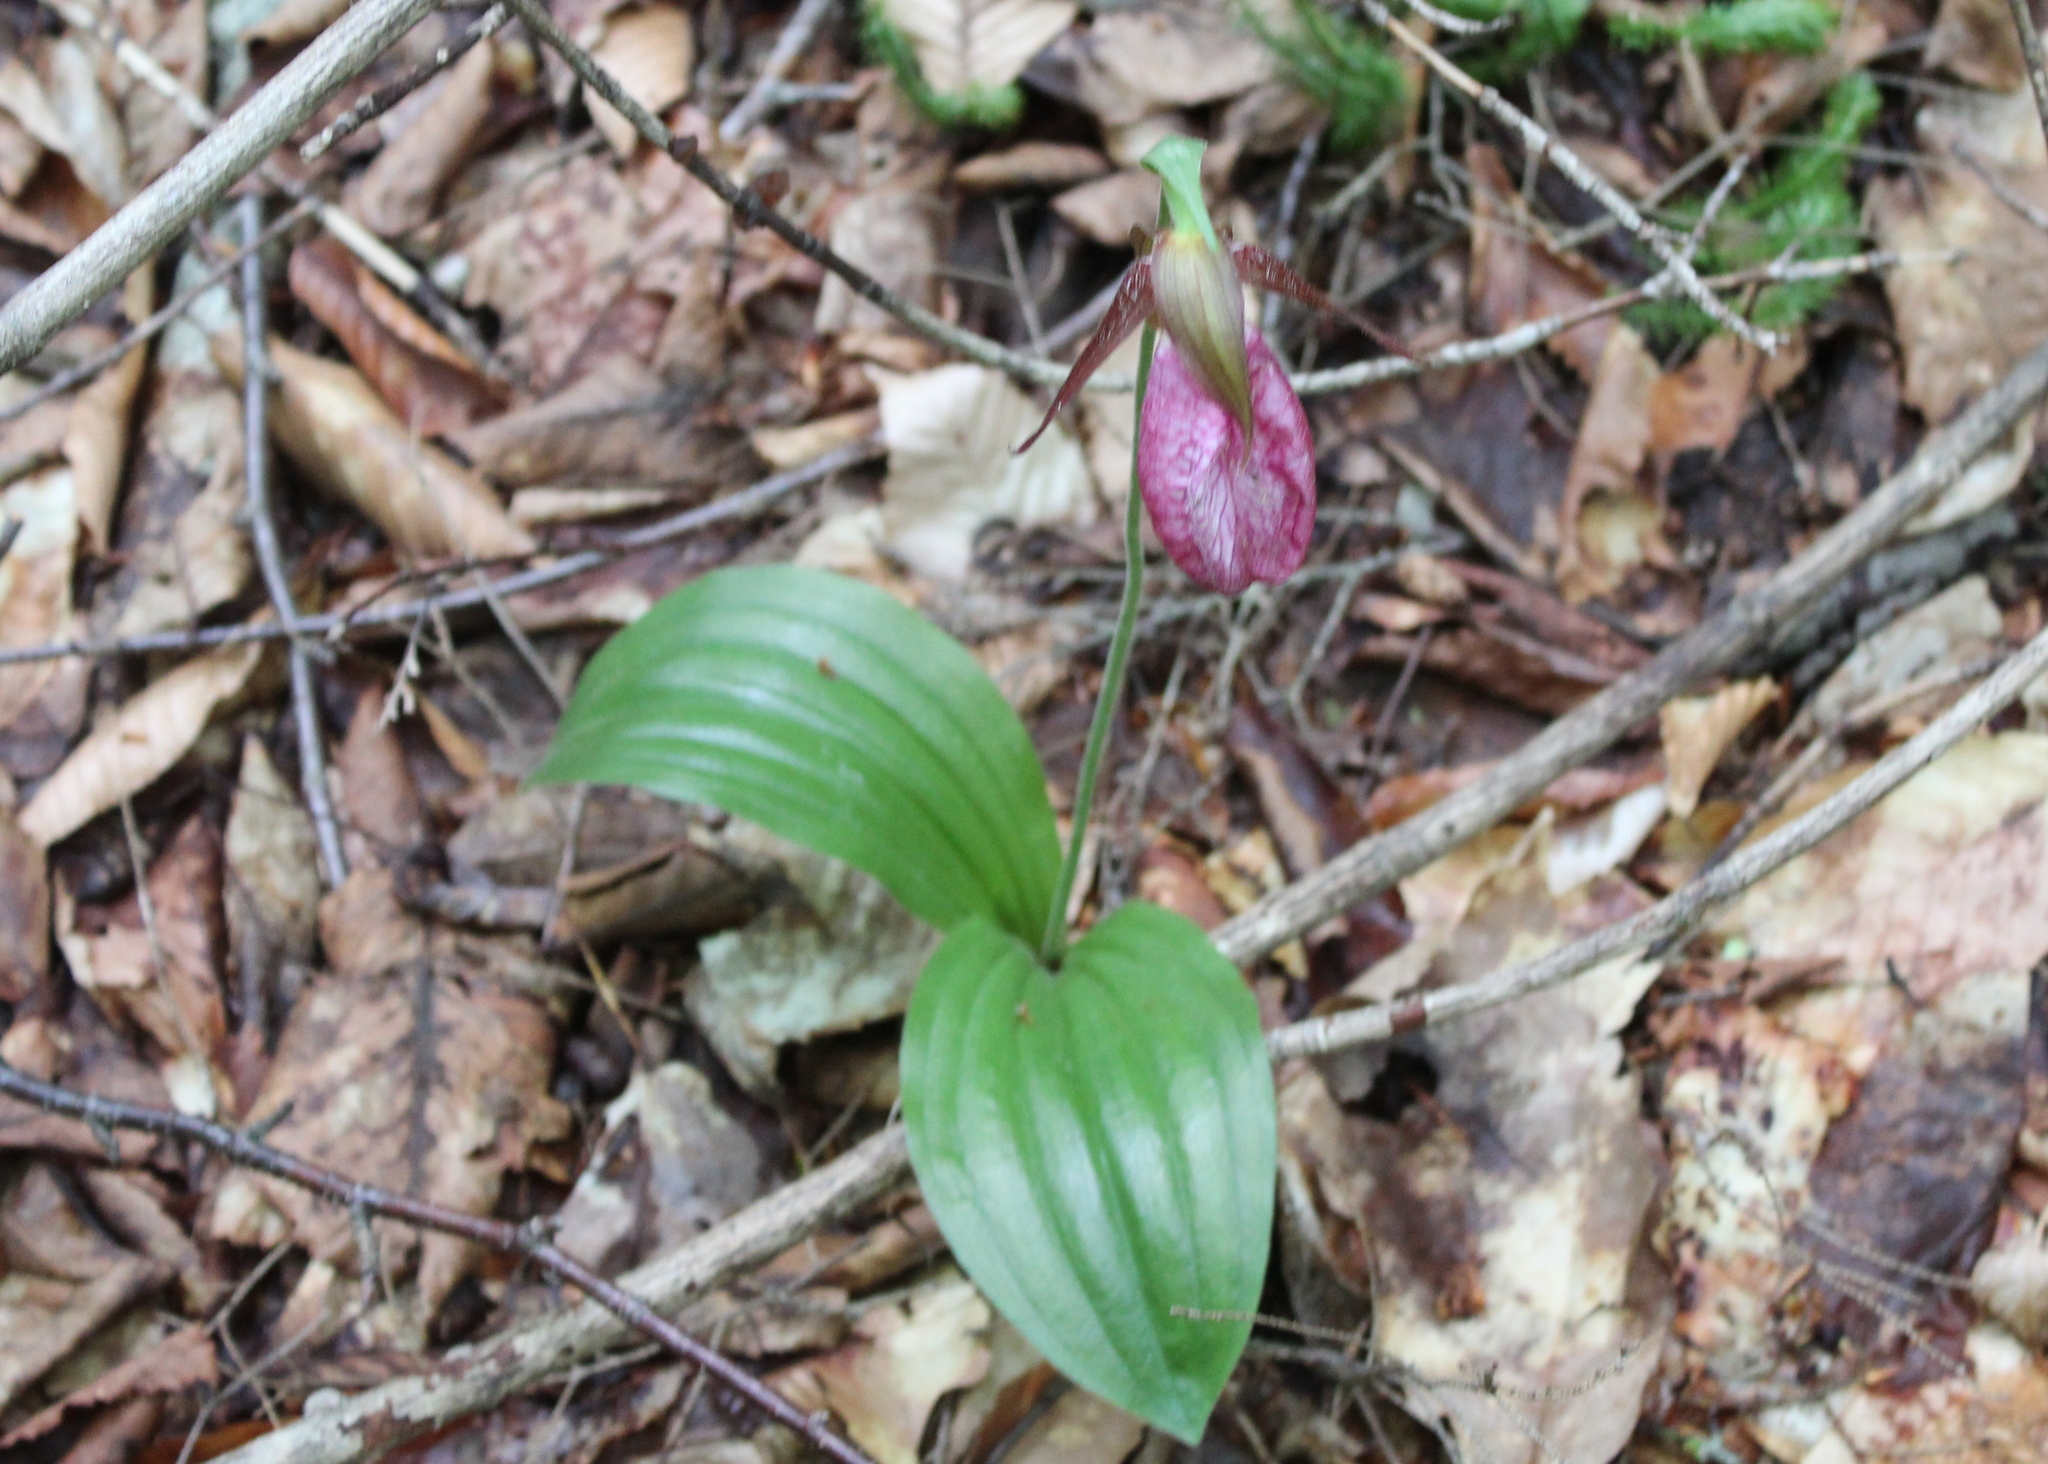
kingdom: Plantae
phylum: Tracheophyta
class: Liliopsida
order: Asparagales
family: Orchidaceae
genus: Cypripedium
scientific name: Cypripedium acaule
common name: Pink lady's-slipper
